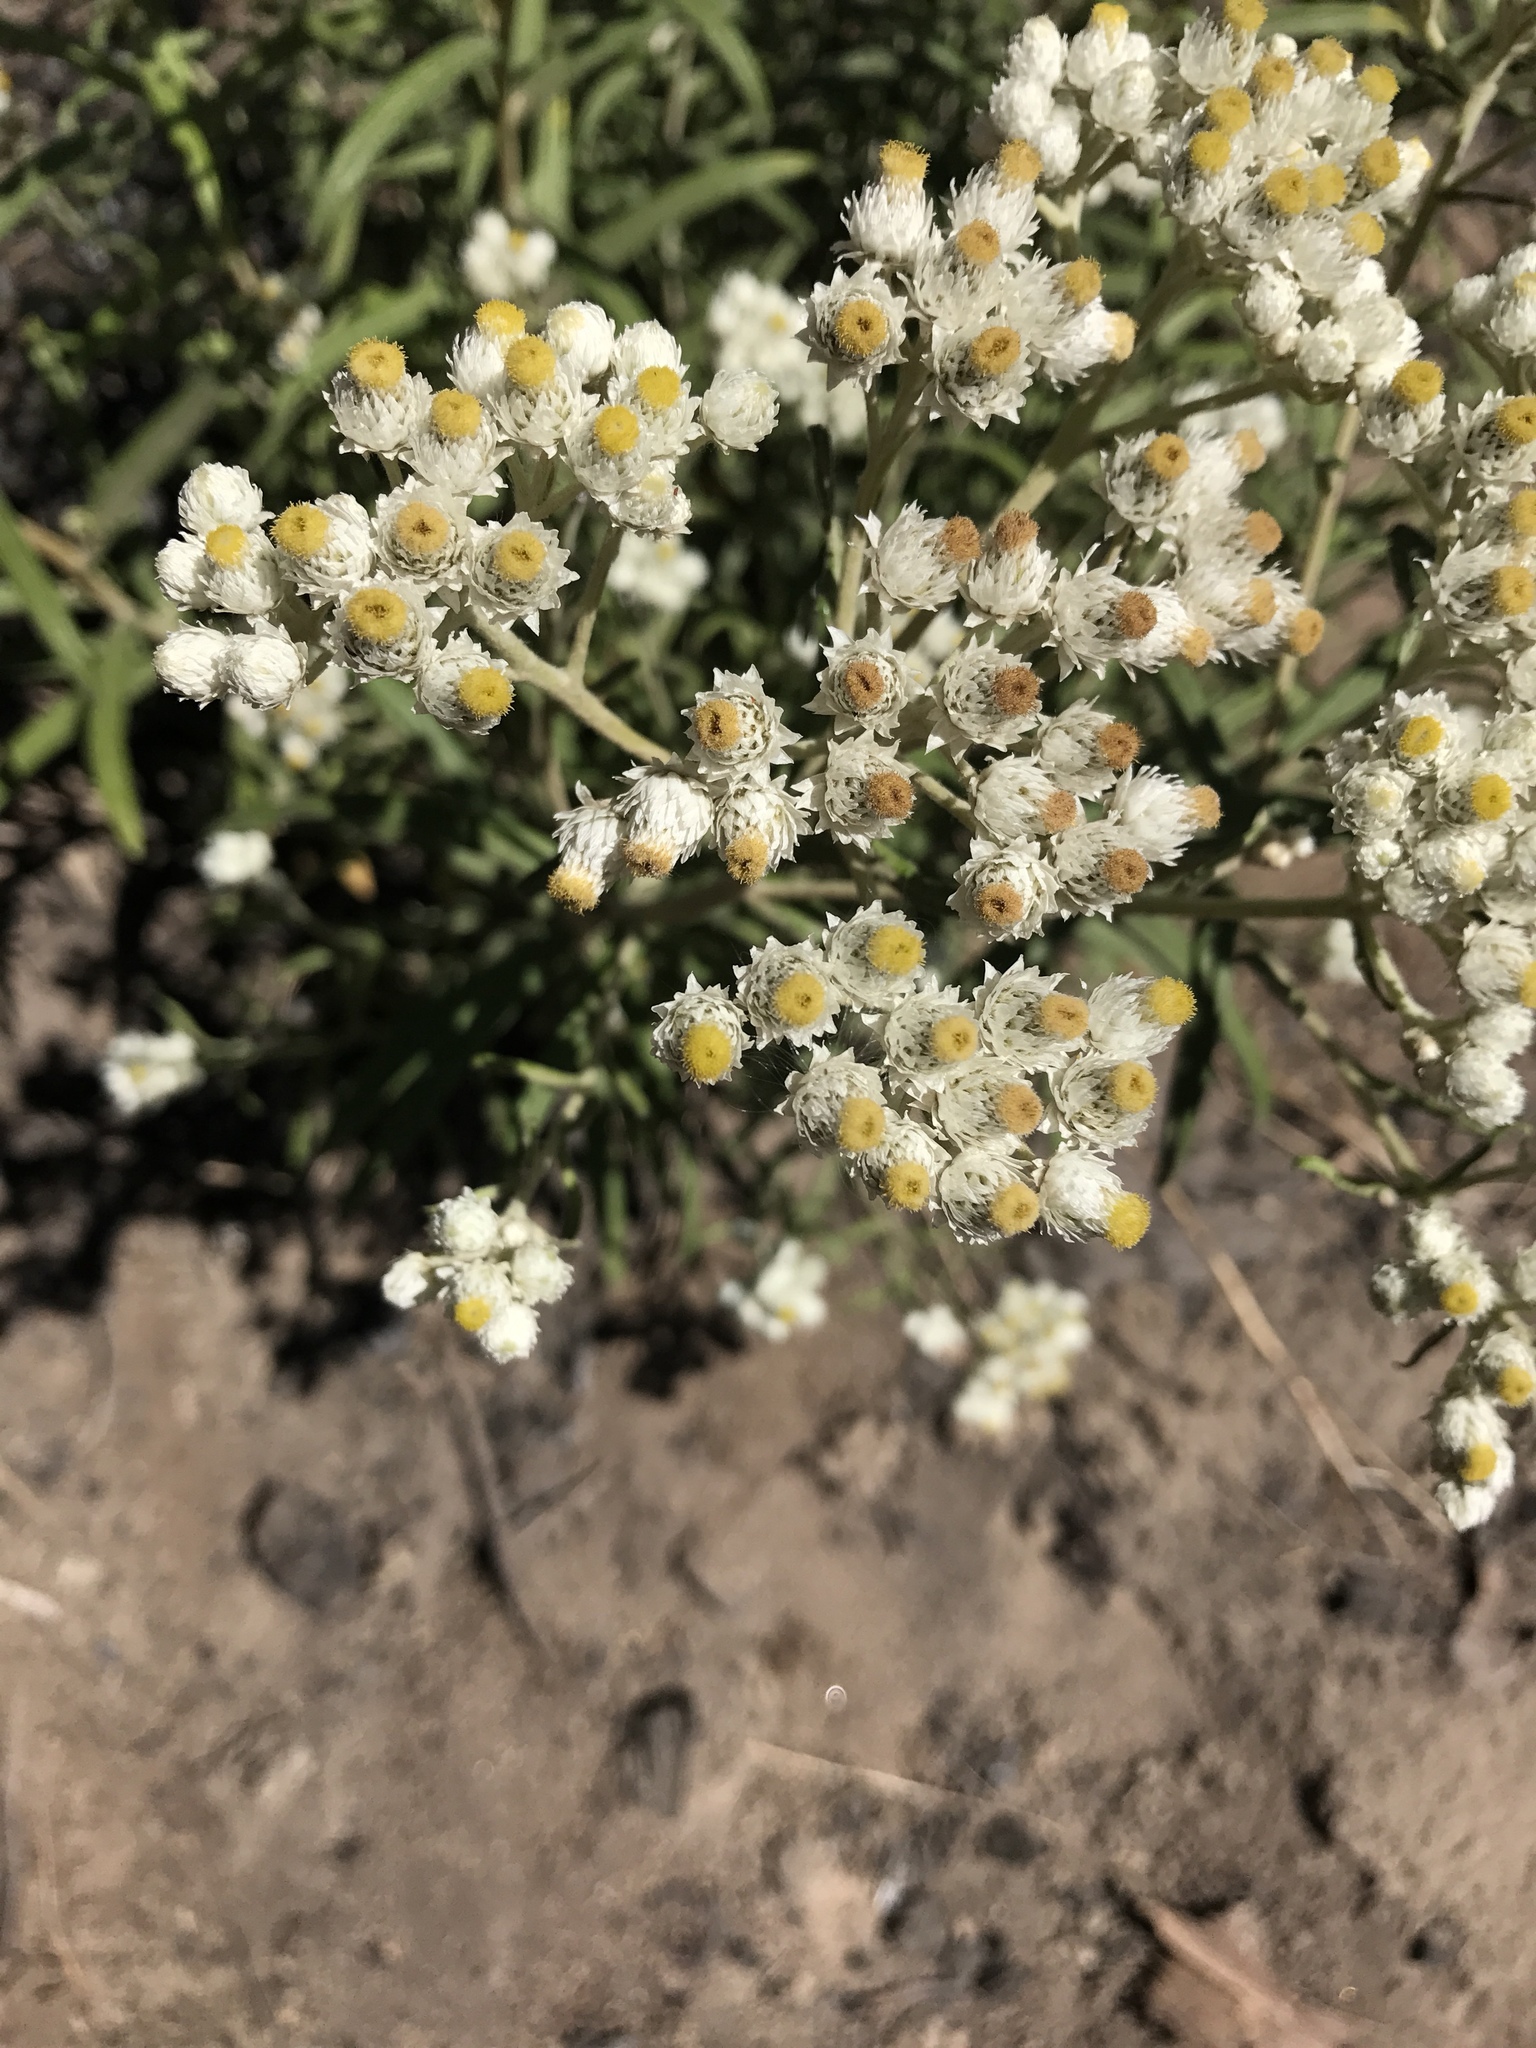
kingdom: Plantae
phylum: Tracheophyta
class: Magnoliopsida
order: Asterales
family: Asteraceae
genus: Anaphalis
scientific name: Anaphalis margaritacea
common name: Pearly everlasting
